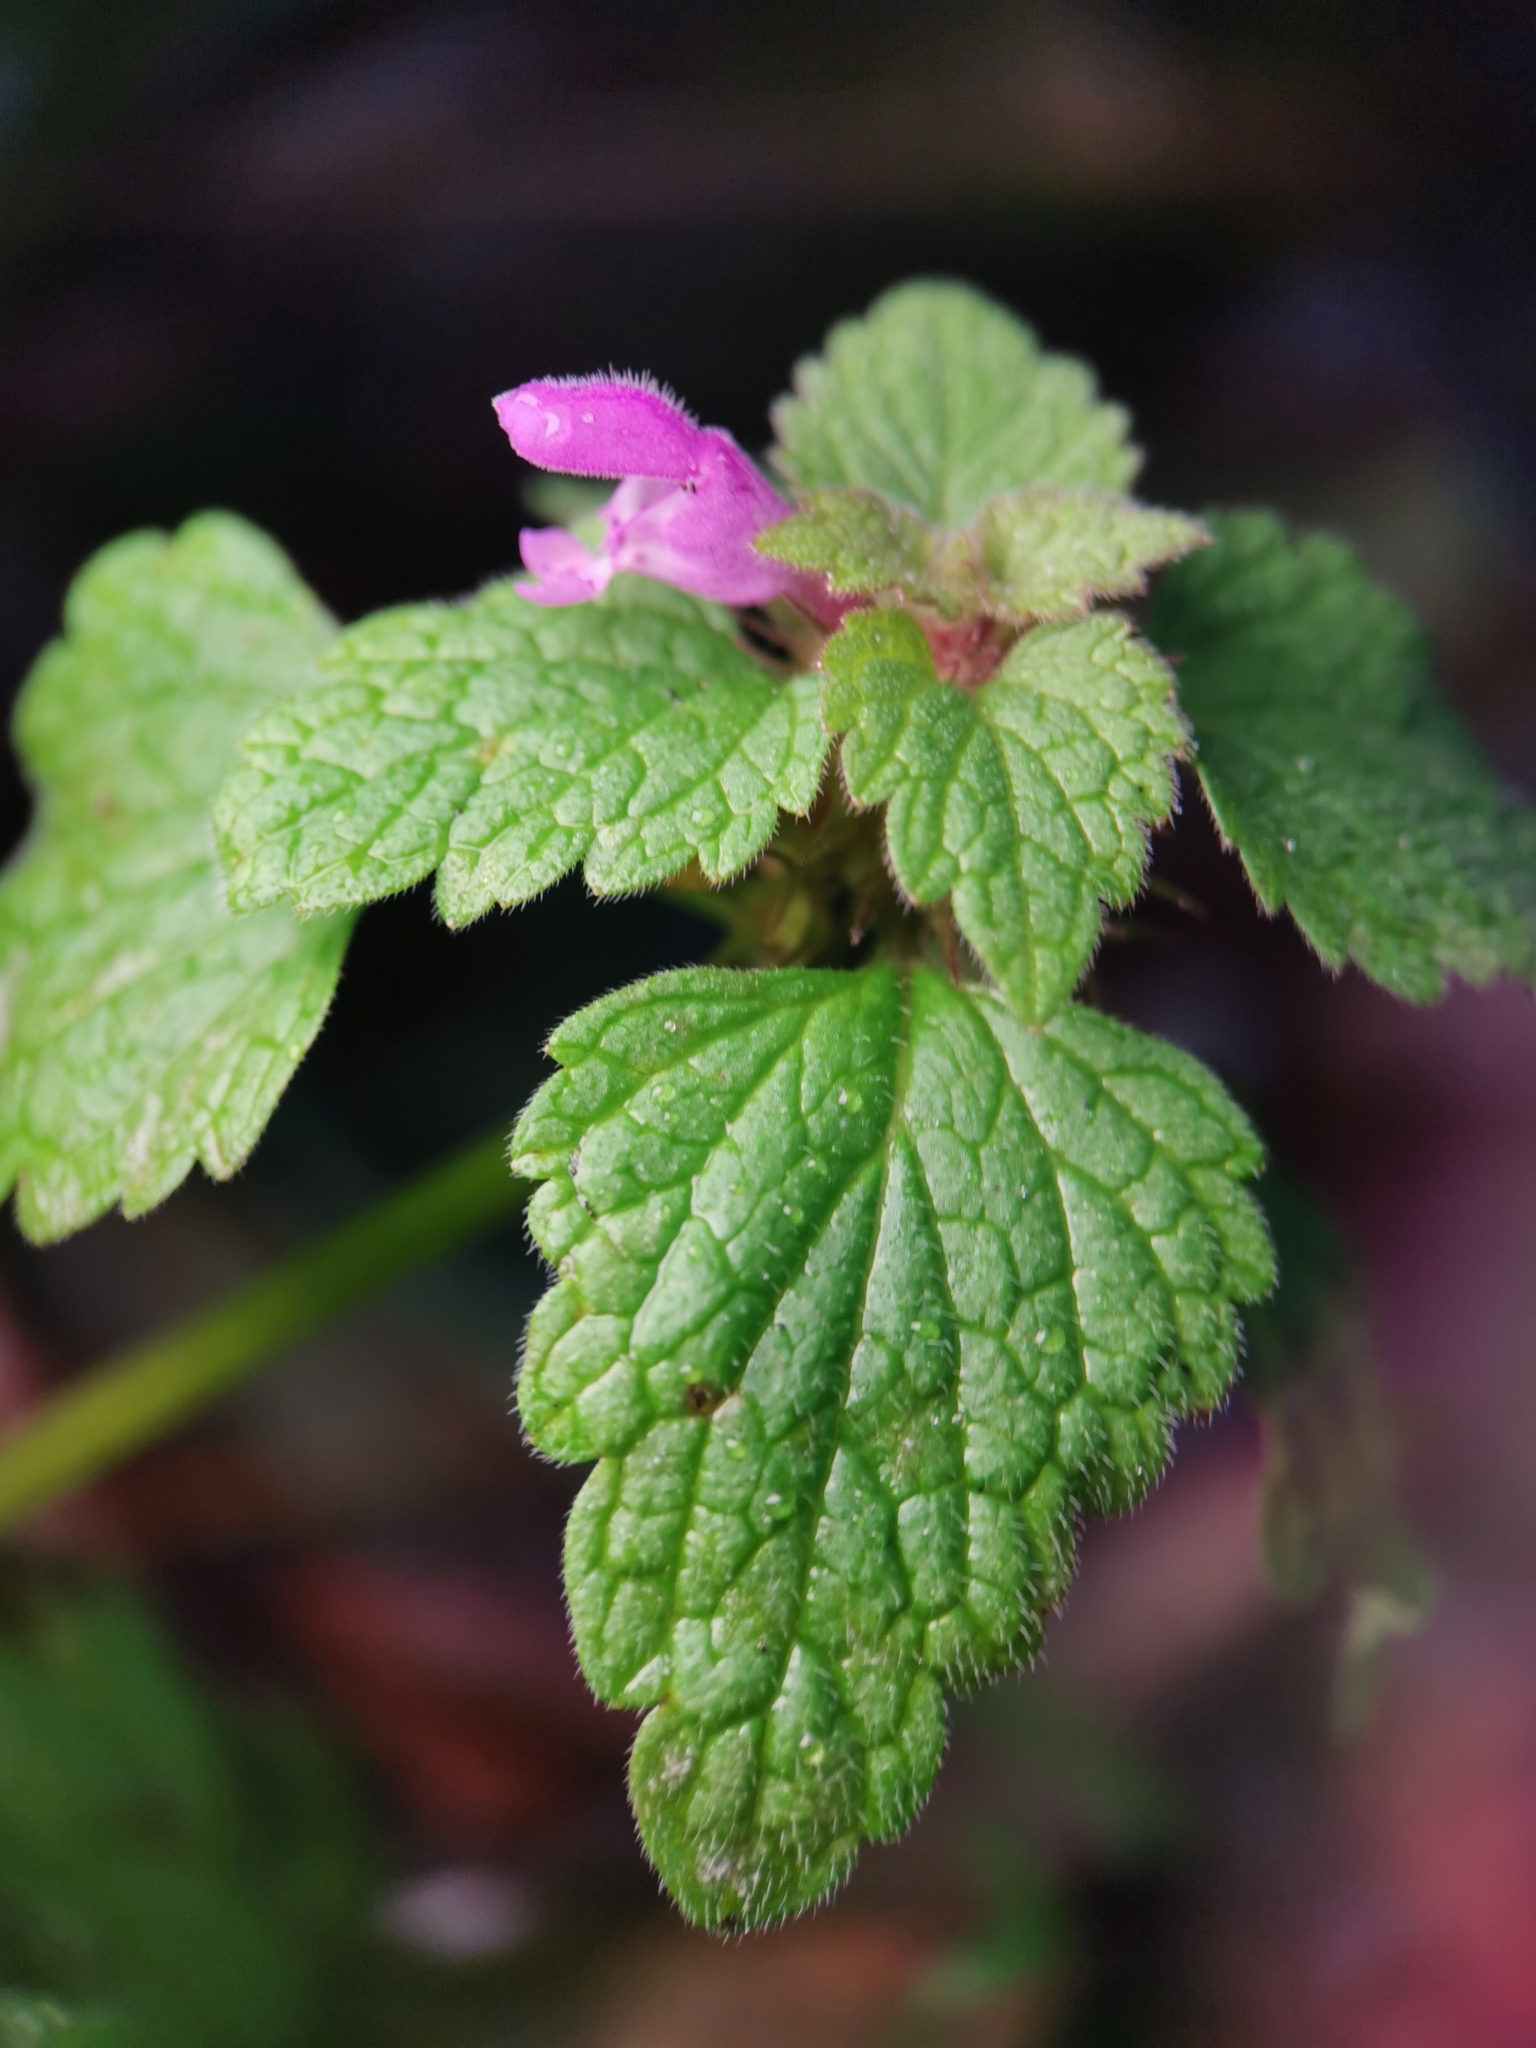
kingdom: Plantae
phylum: Tracheophyta
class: Magnoliopsida
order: Lamiales
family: Lamiaceae
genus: Lamium
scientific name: Lamium purpureum
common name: Red dead-nettle
